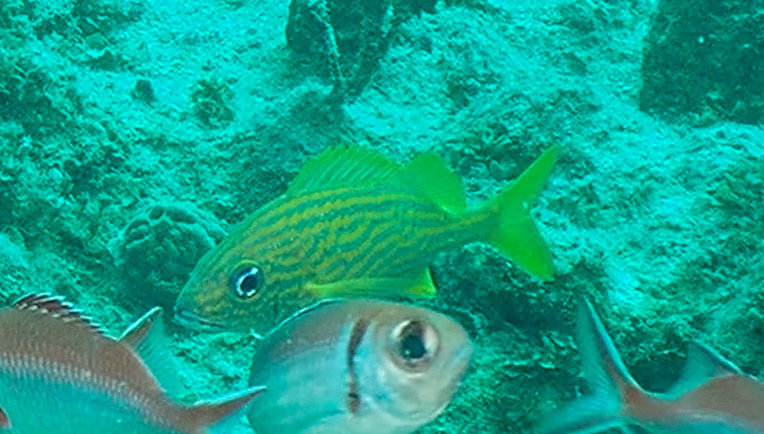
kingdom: Animalia
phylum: Chordata
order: Perciformes
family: Haemulidae
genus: Haemulon
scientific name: Haemulon flavolineatum
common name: French grunt
